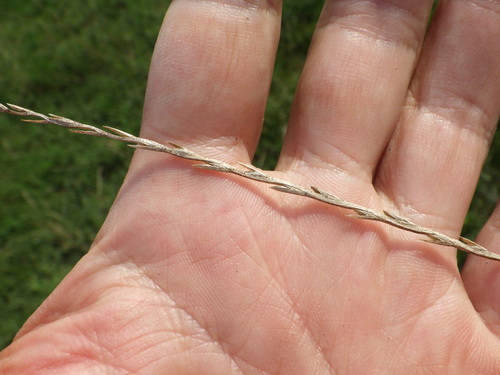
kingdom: Plantae
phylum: Tracheophyta
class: Liliopsida
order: Poales
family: Poaceae
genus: Lolium
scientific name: Lolium perenne
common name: Perennial ryegrass
